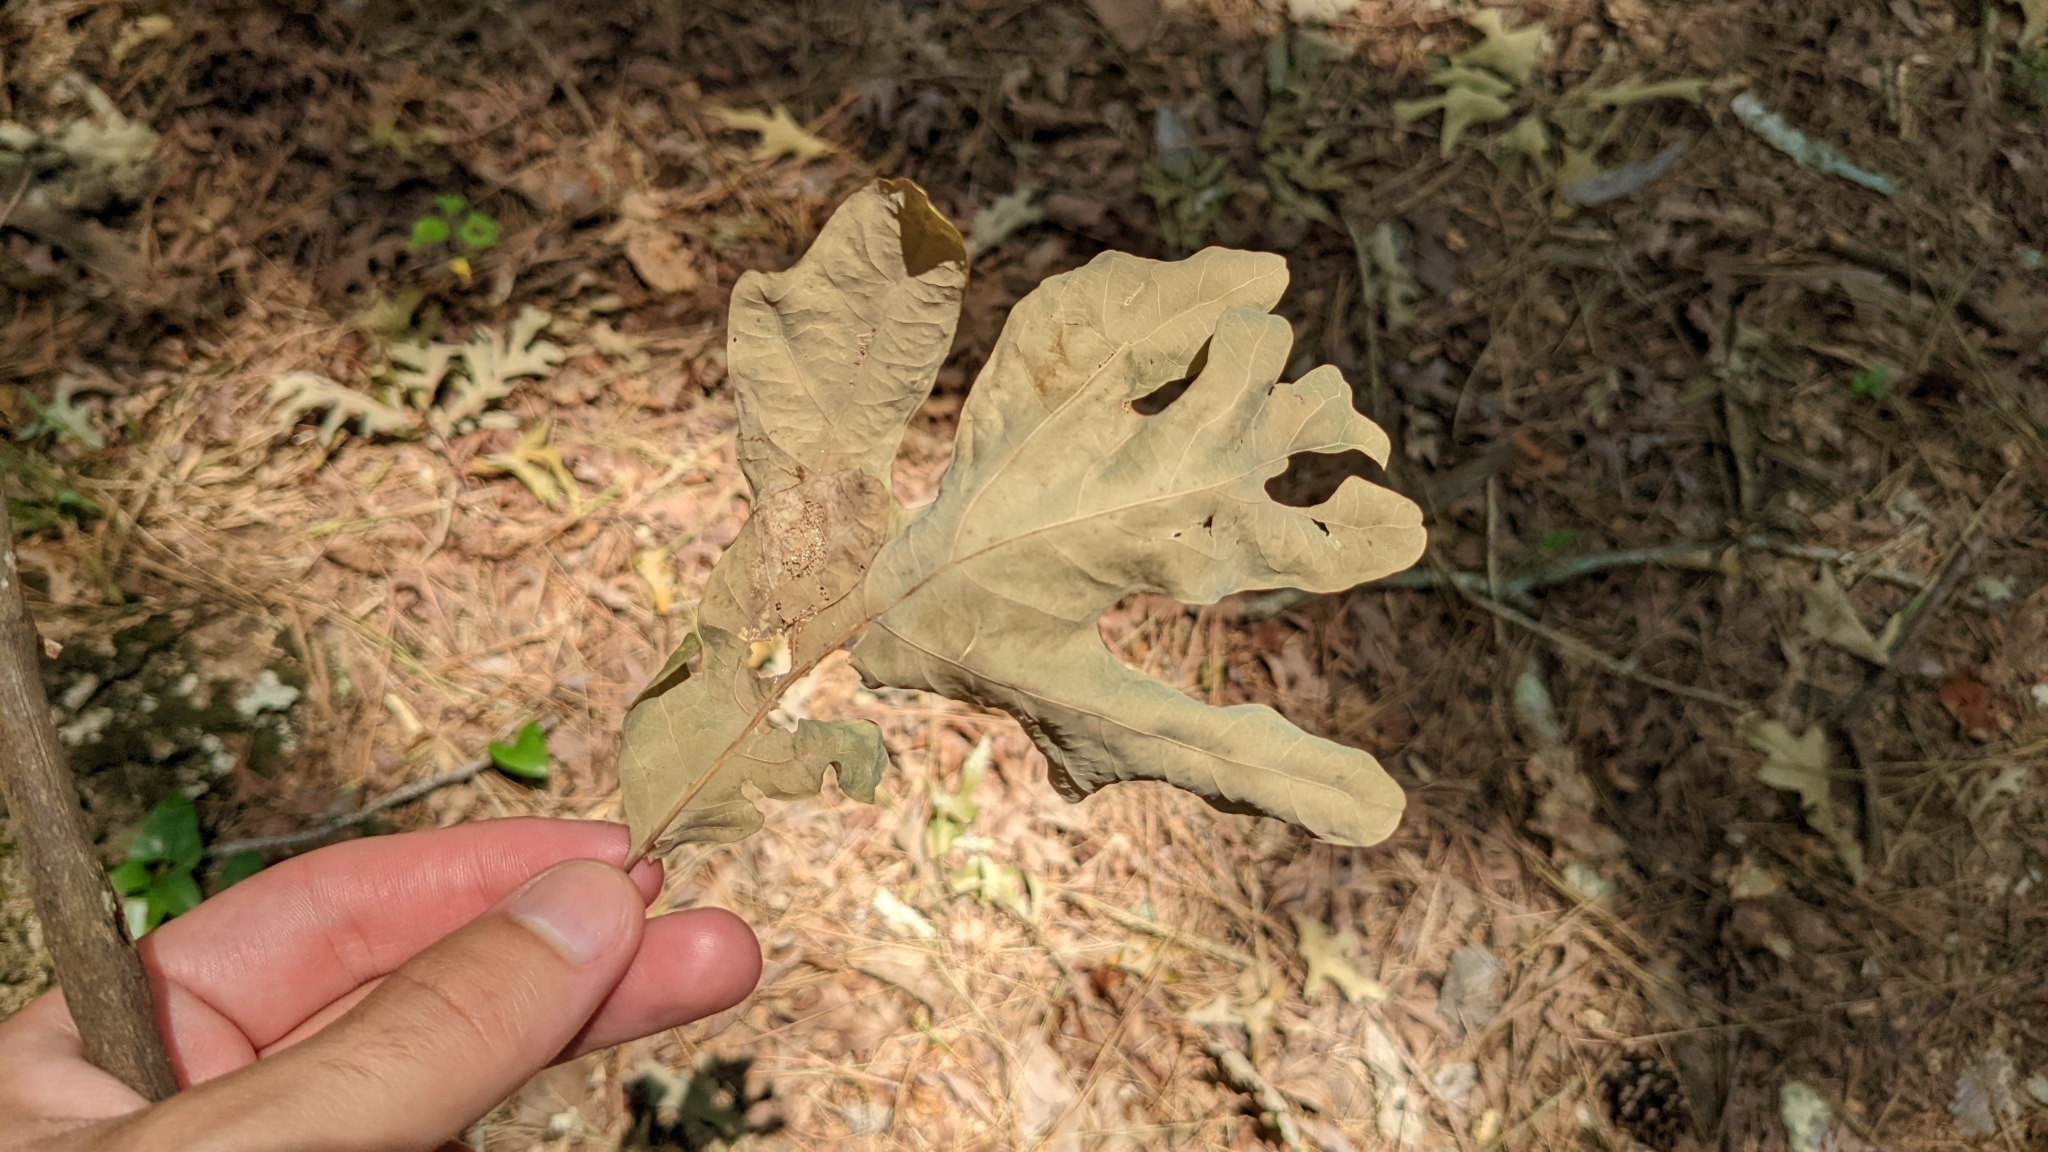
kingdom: Plantae
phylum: Tracheophyta
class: Magnoliopsida
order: Fagales
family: Fagaceae
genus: Quercus
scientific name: Quercus alba
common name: White oak
